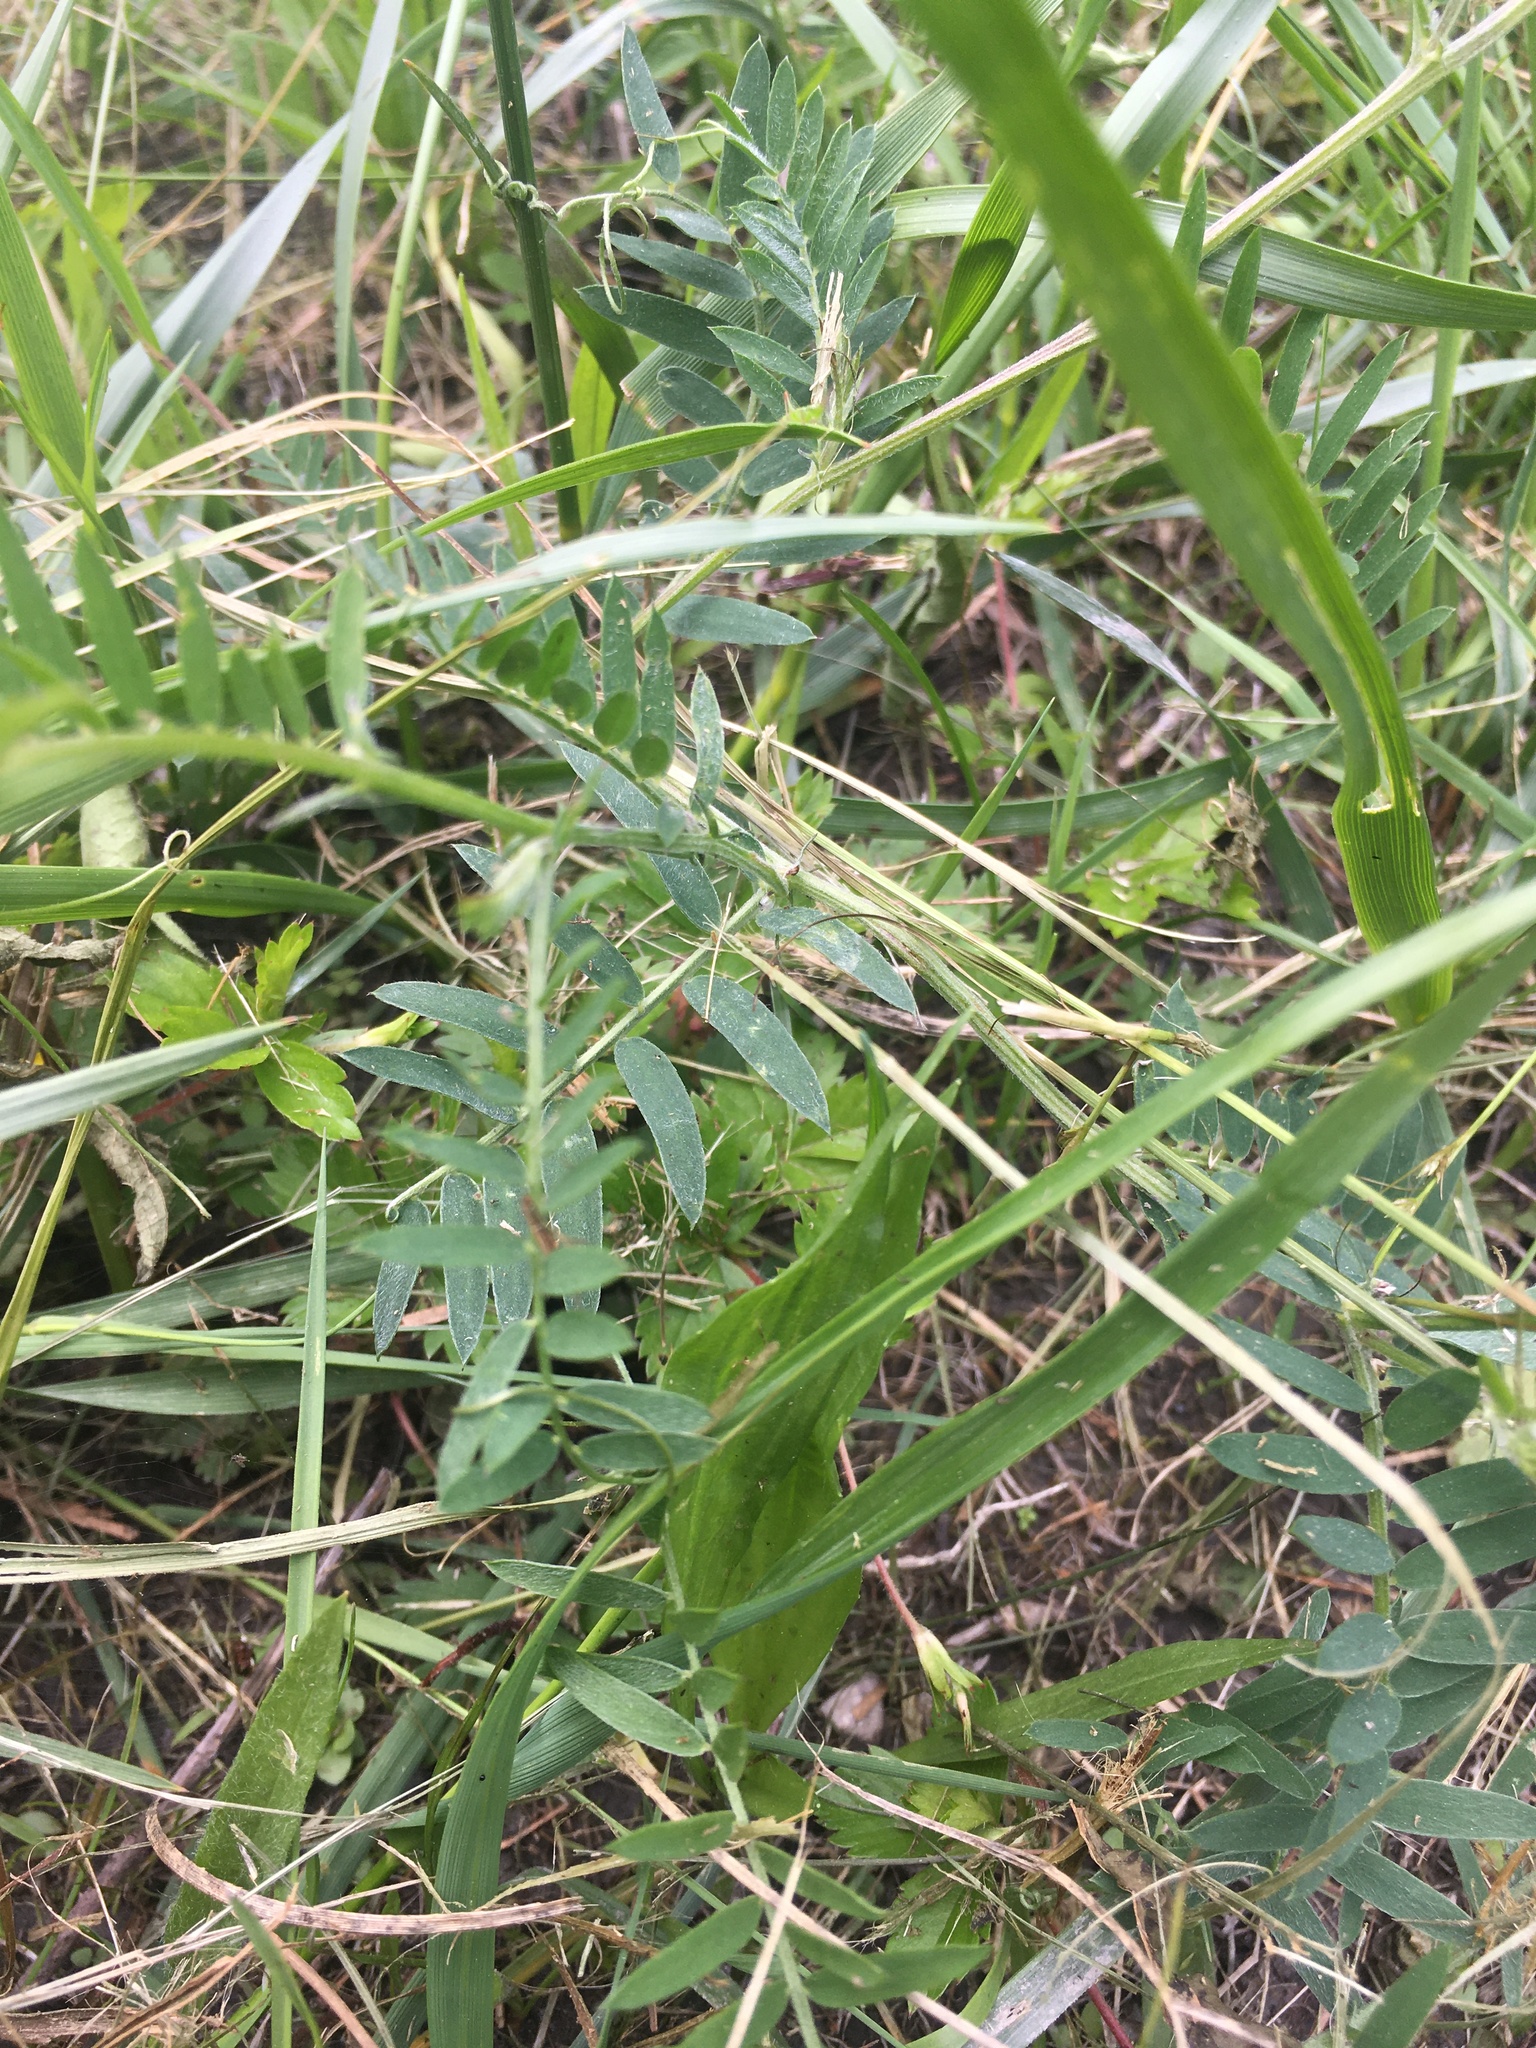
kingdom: Plantae
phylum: Tracheophyta
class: Magnoliopsida
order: Fabales
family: Fabaceae
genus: Vicia
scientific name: Vicia cracca
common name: Bird vetch
